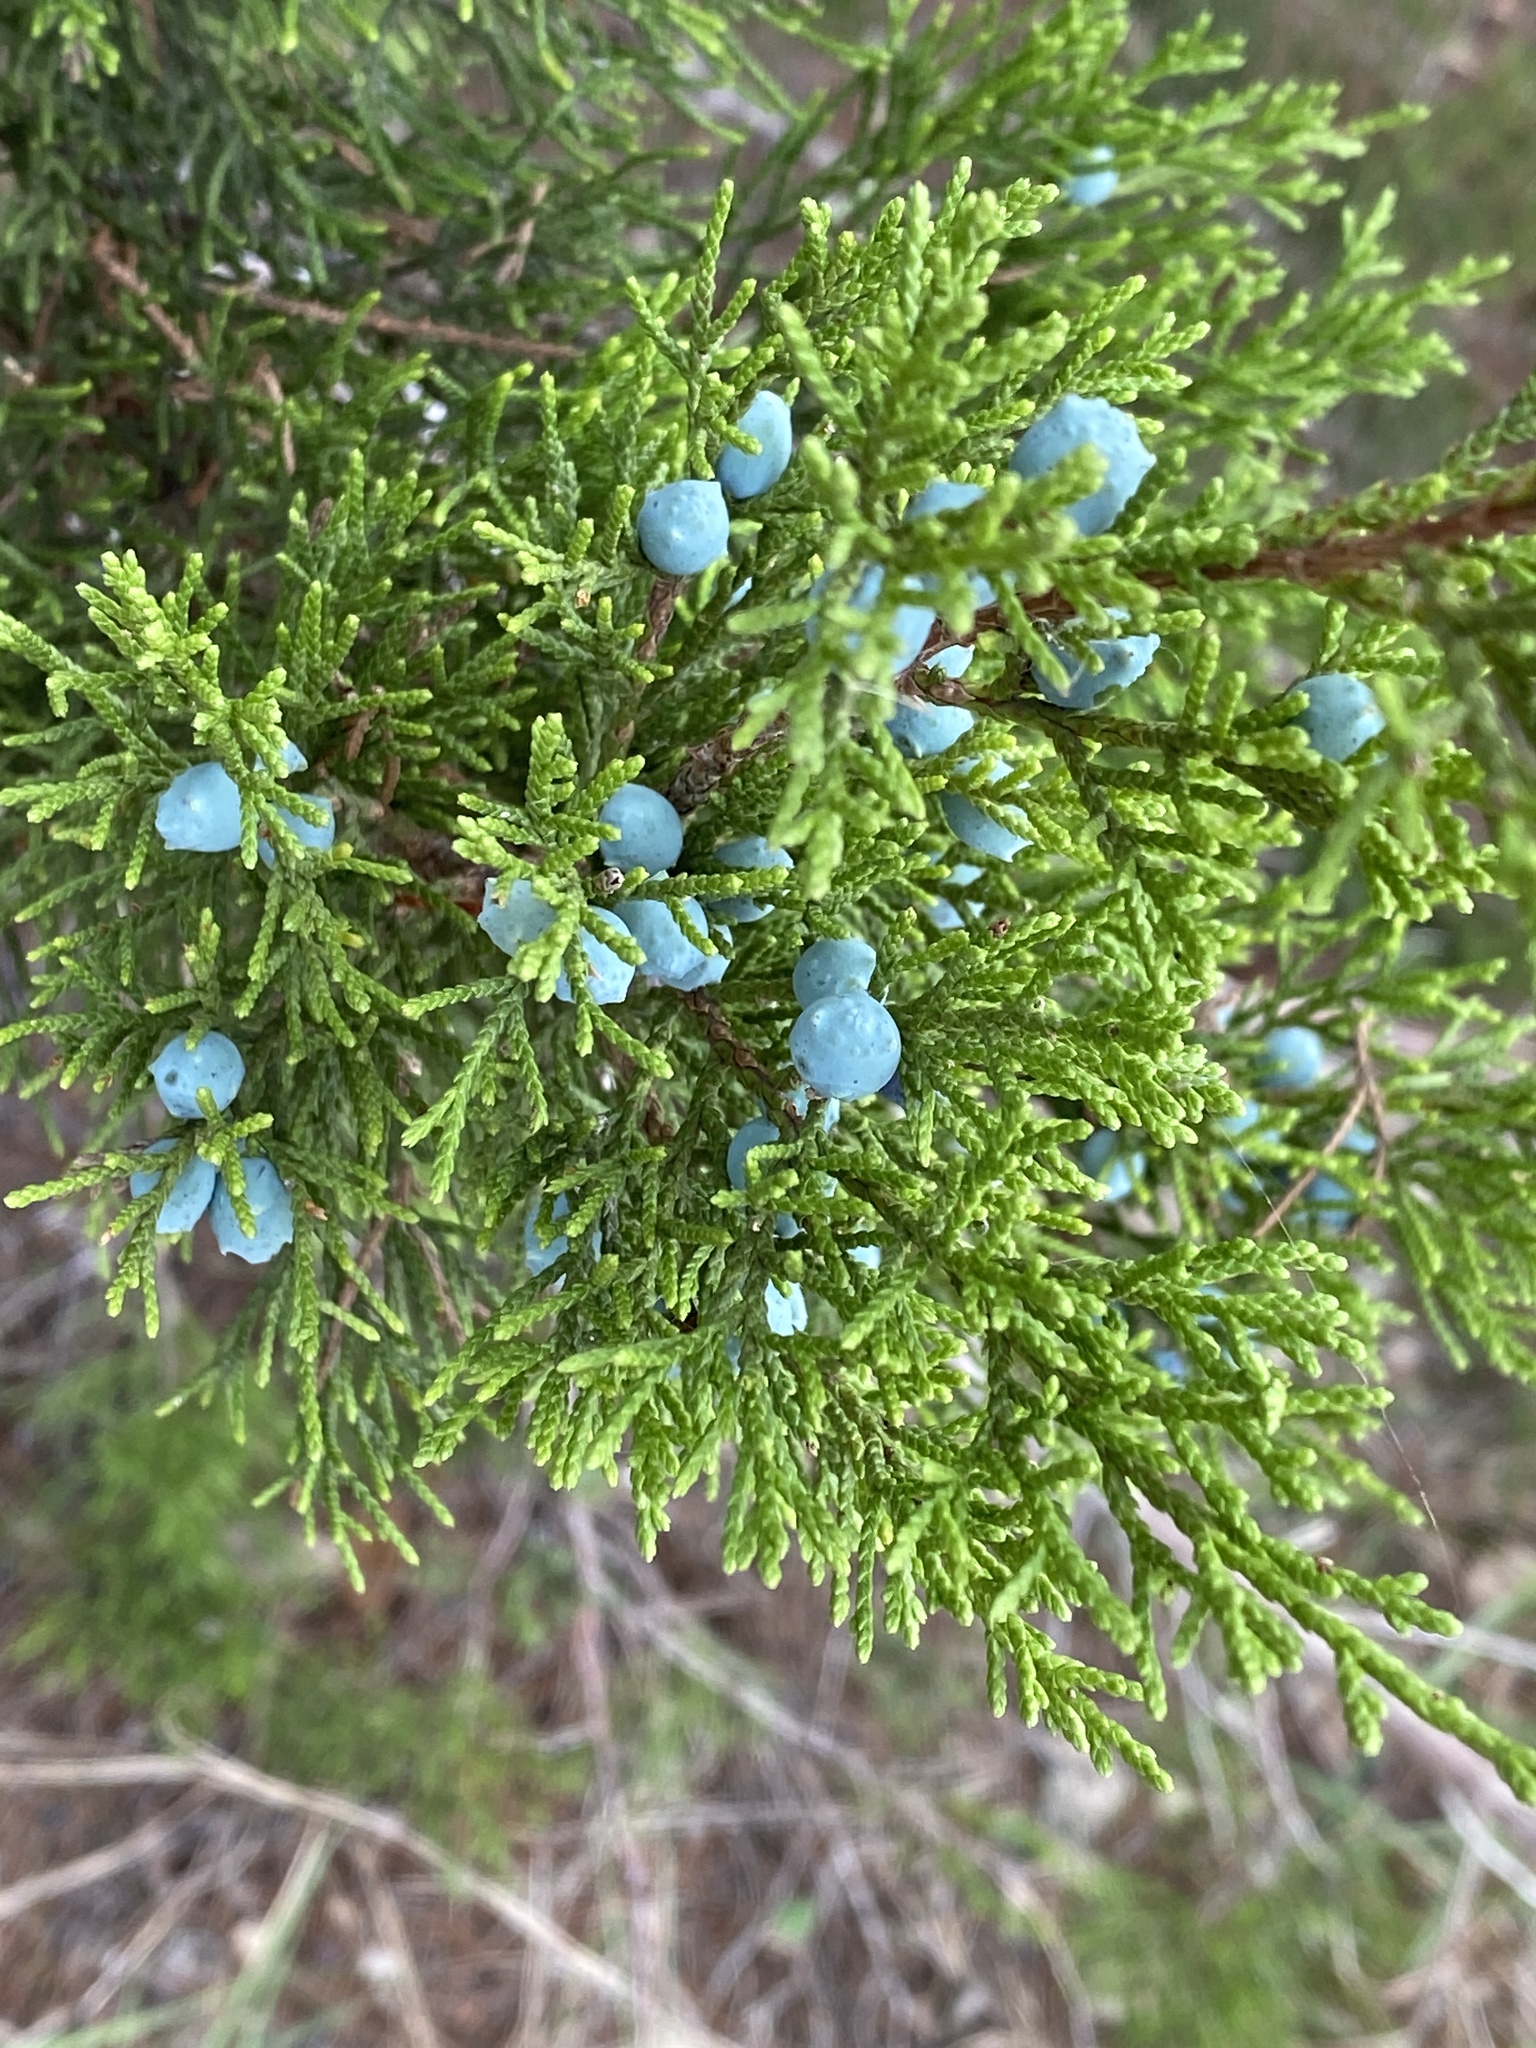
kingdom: Plantae
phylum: Tracheophyta
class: Pinopsida
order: Pinales
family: Cupressaceae
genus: Juniperus
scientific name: Juniperus ashei
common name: Mexican juniper
